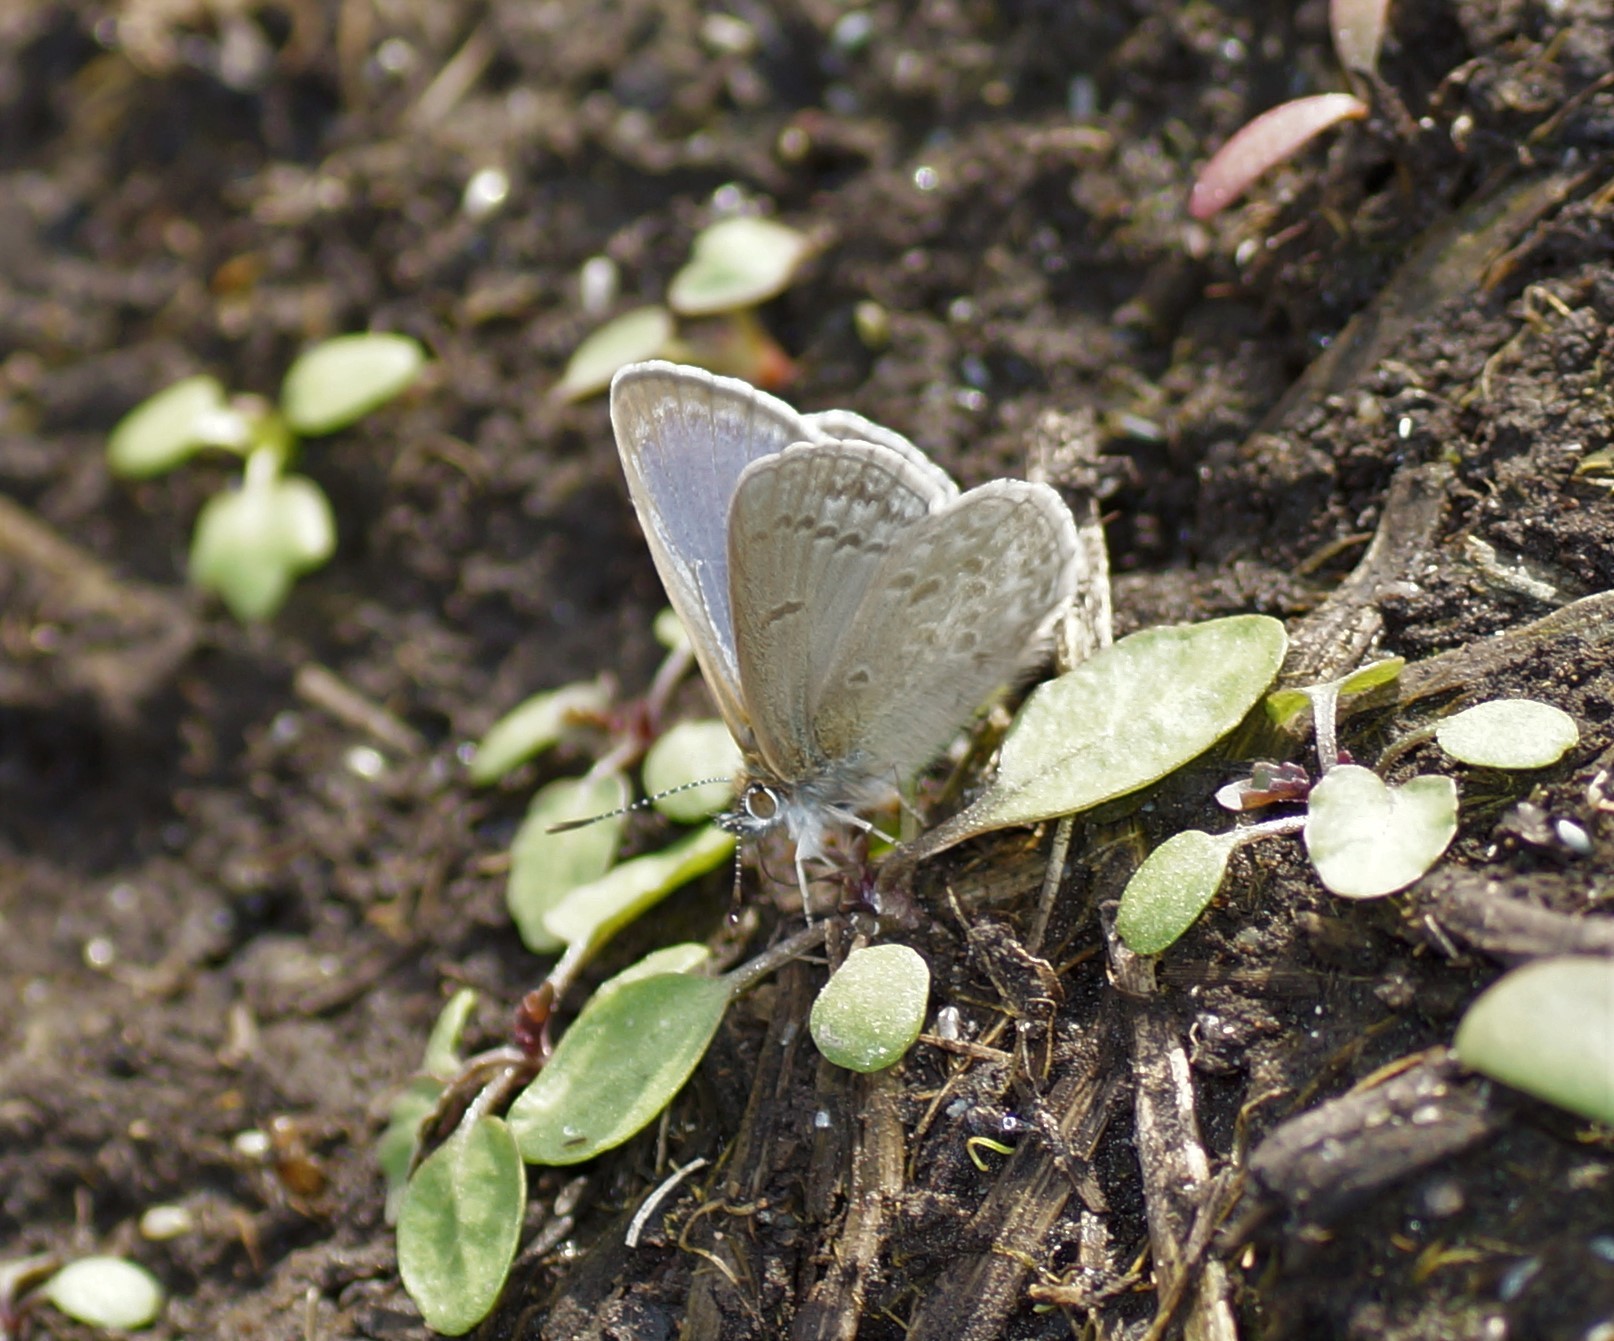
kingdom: Animalia
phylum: Arthropoda
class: Insecta
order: Lepidoptera
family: Lycaenidae
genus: Zizina
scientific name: Zizina labradus
